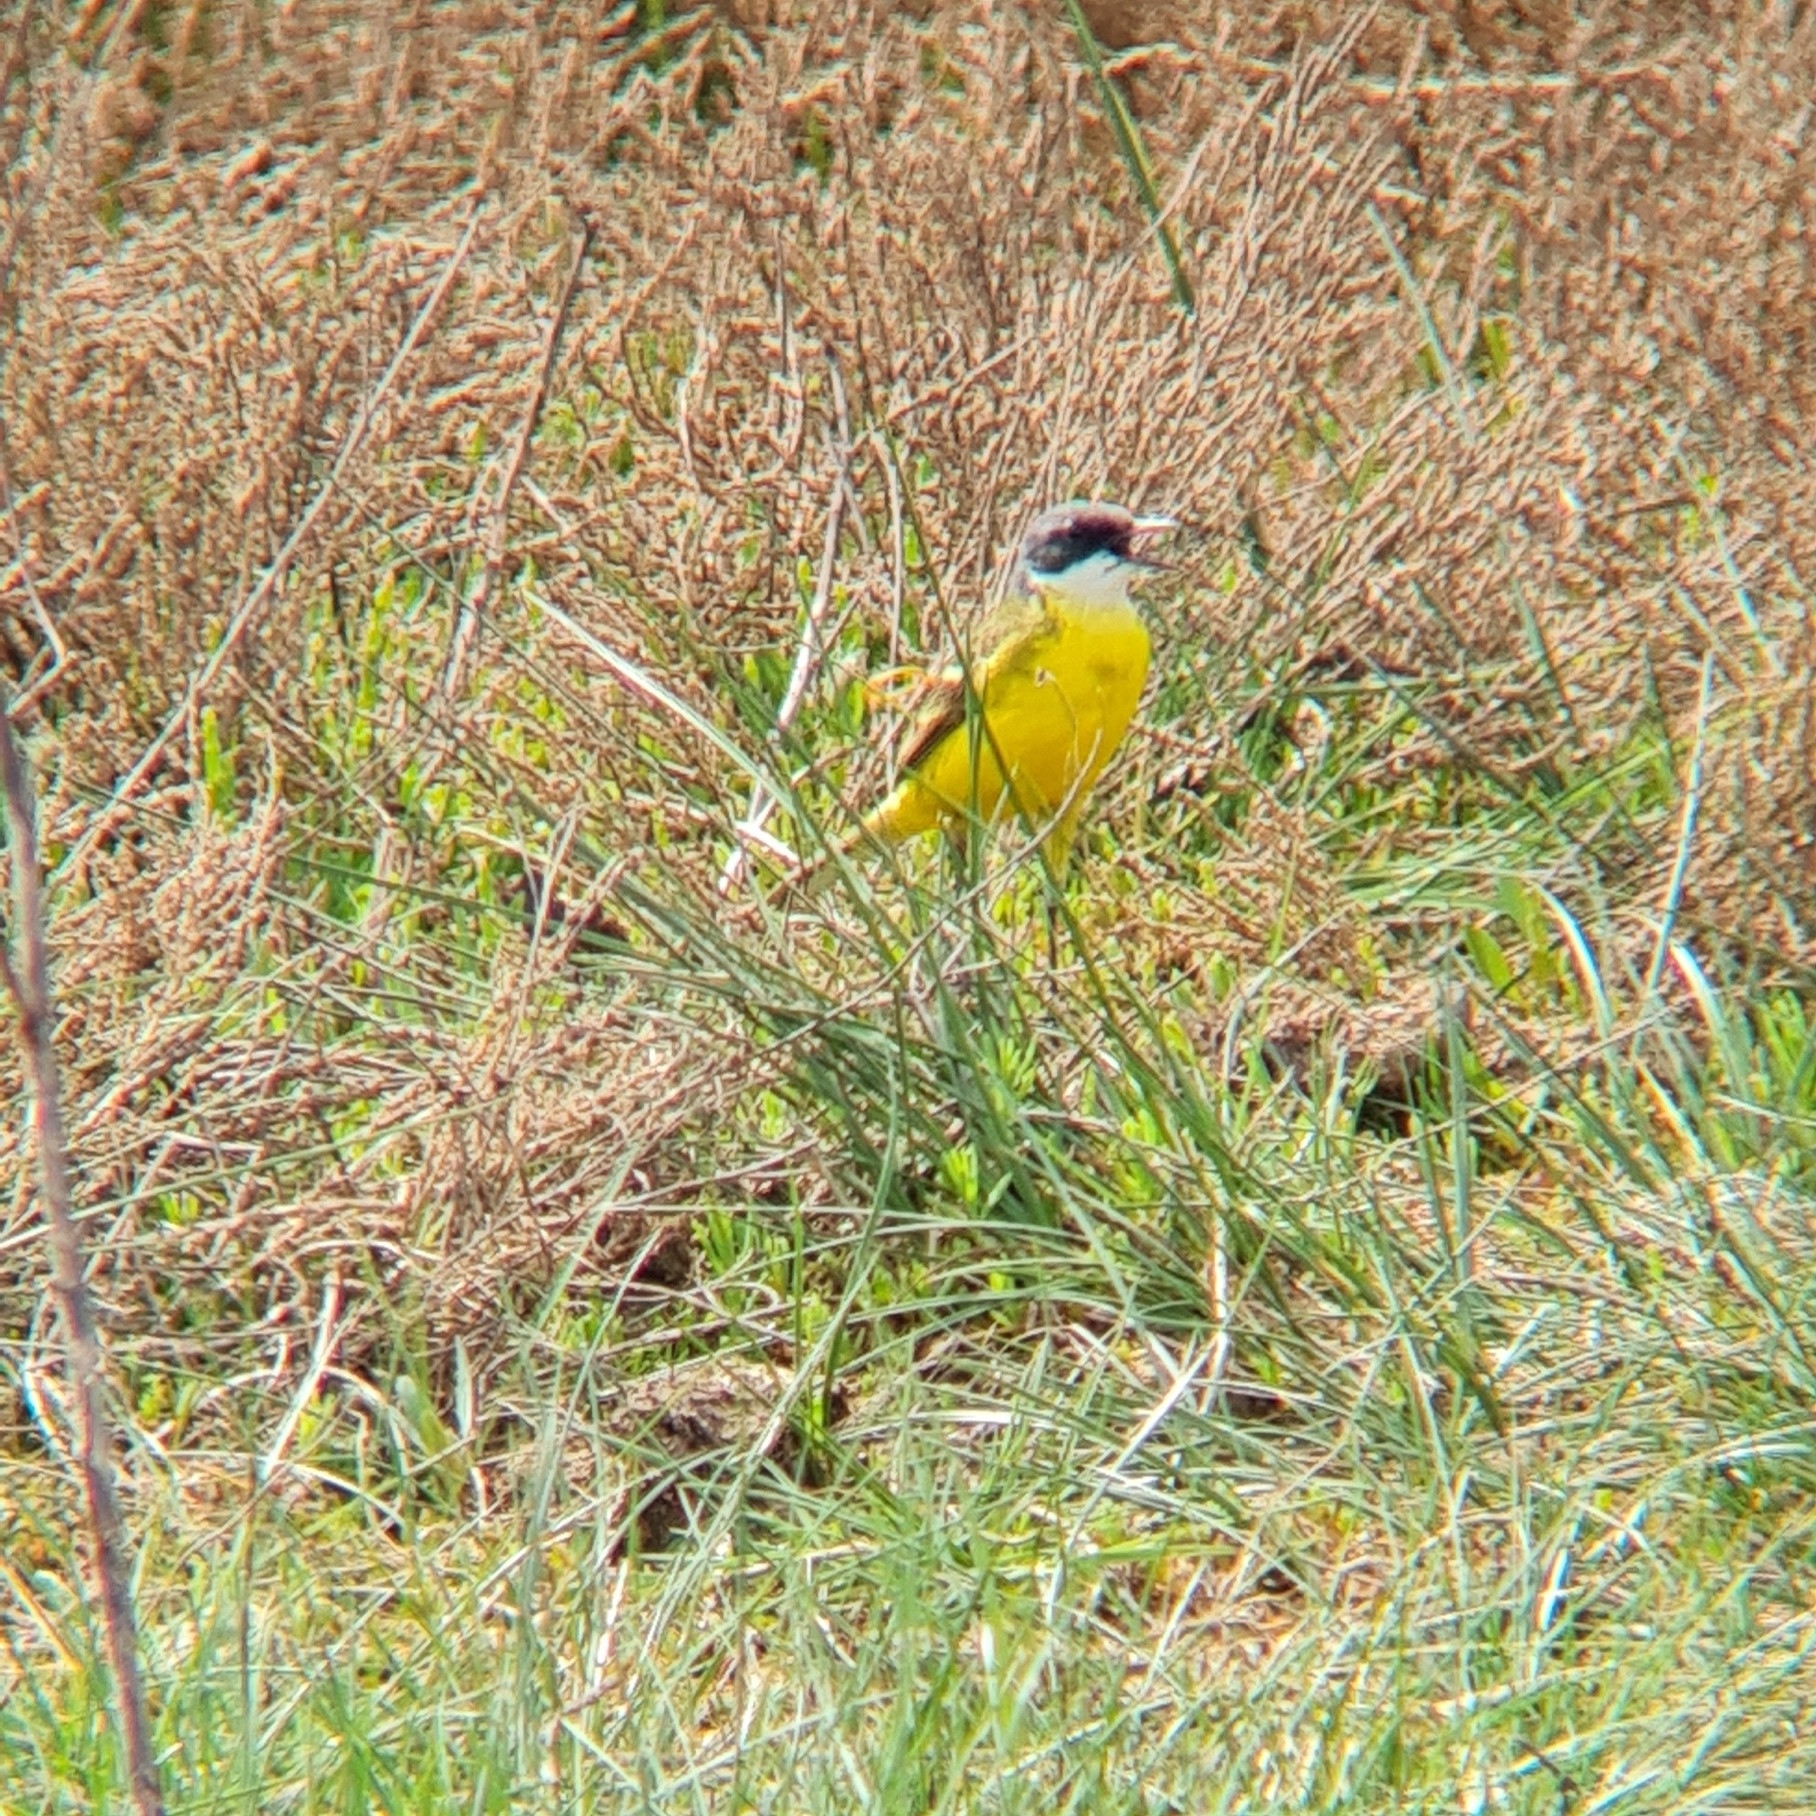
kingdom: Animalia
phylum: Chordata
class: Aves
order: Passeriformes
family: Motacillidae
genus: Motacilla
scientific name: Motacilla flava
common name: Western yellow wagtail
